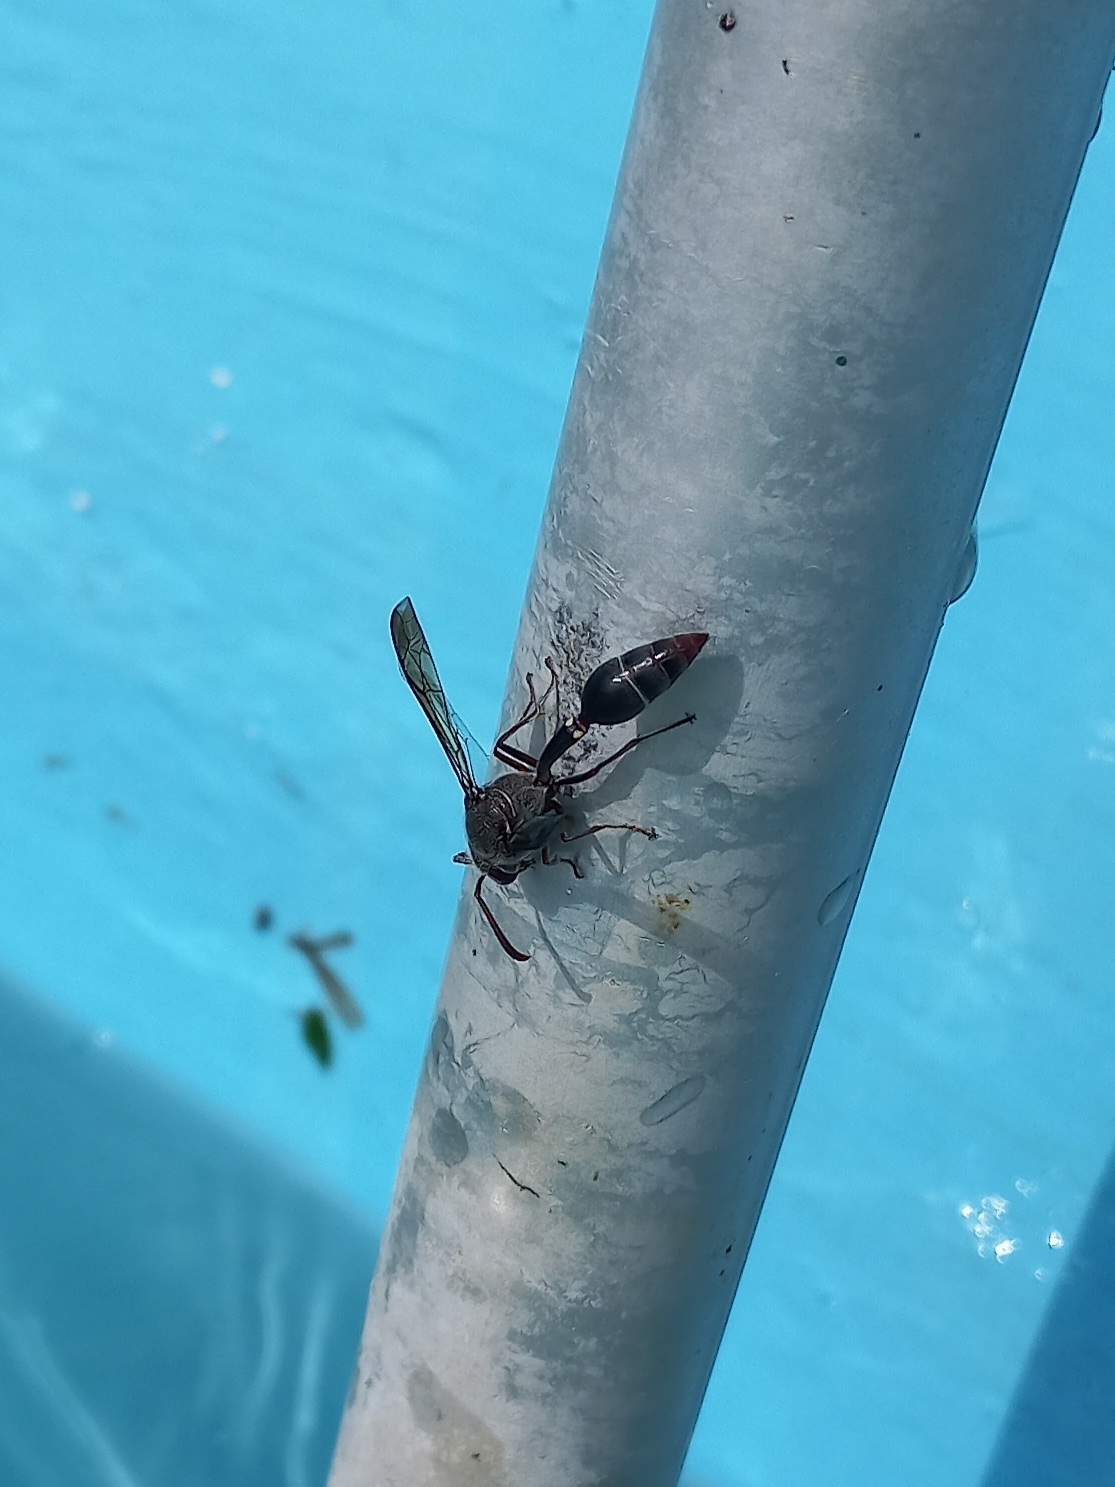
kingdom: Animalia
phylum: Arthropoda
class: Insecta
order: Hymenoptera
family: Eumenidae
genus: Delta
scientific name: Delta phthisicum
